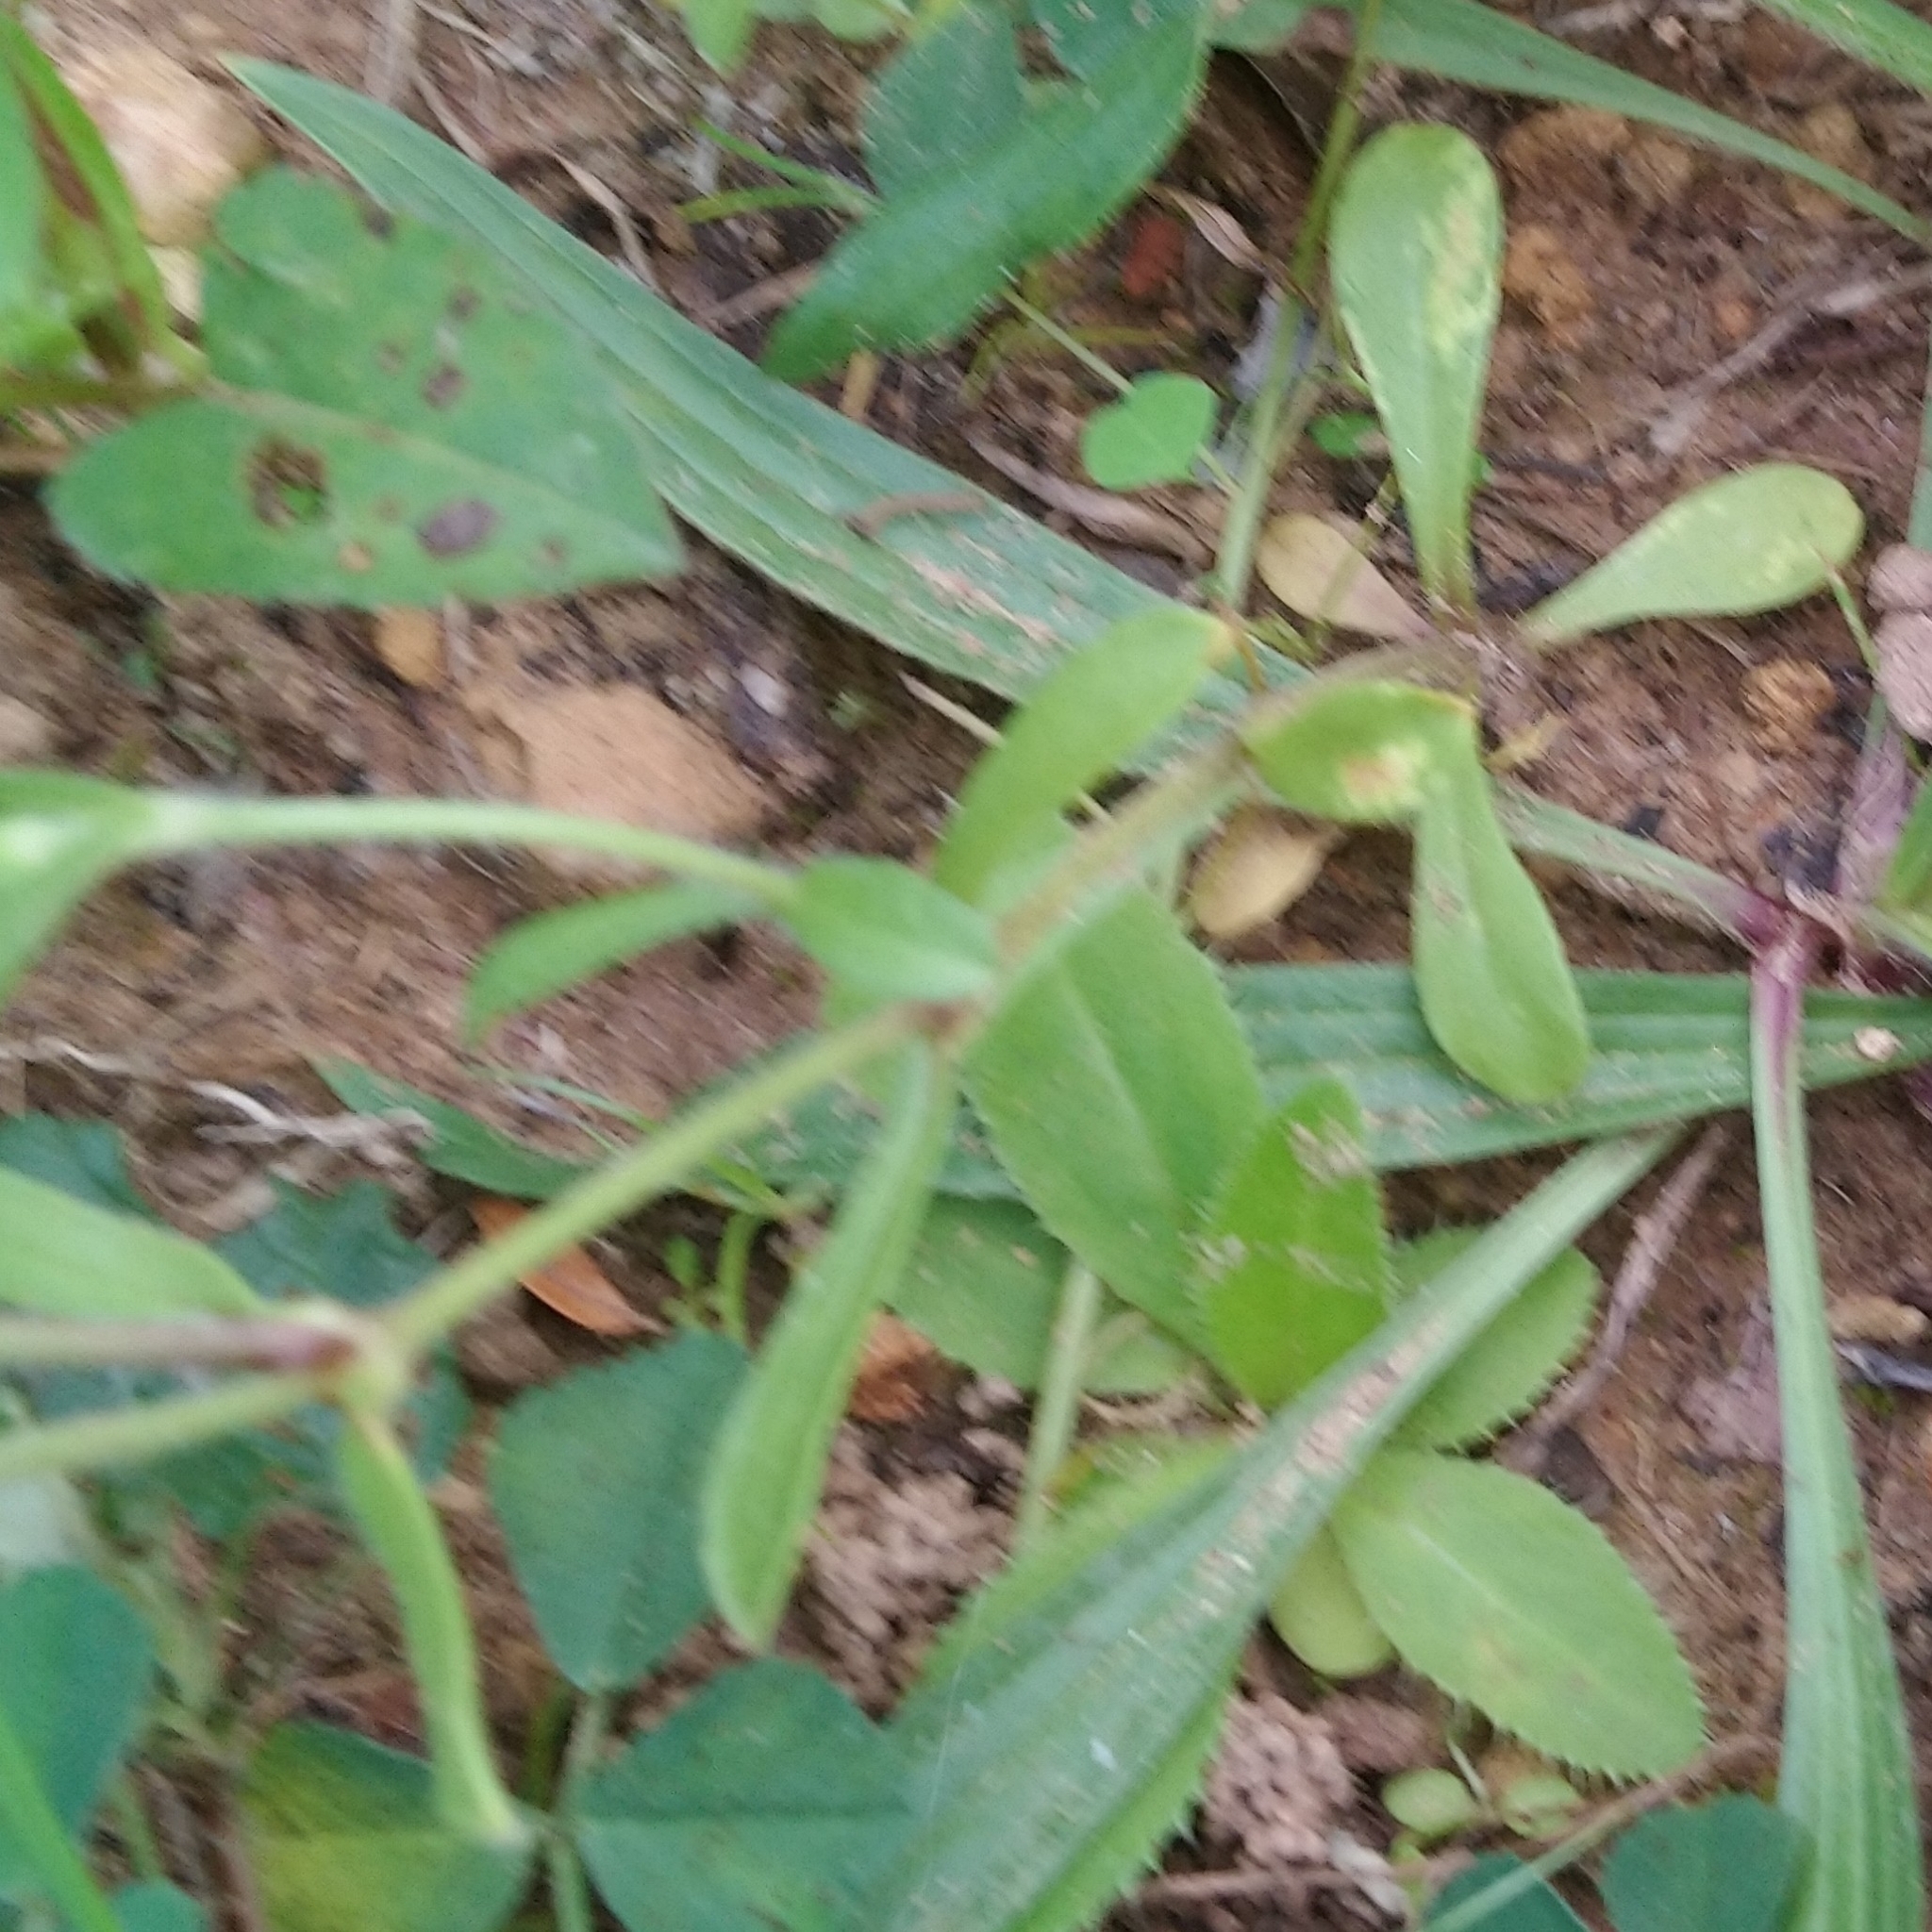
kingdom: Plantae
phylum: Tracheophyta
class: Magnoliopsida
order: Caryophyllales
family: Caryophyllaceae
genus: Silene
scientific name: Silene gallica
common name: Small-flowered catchfly
